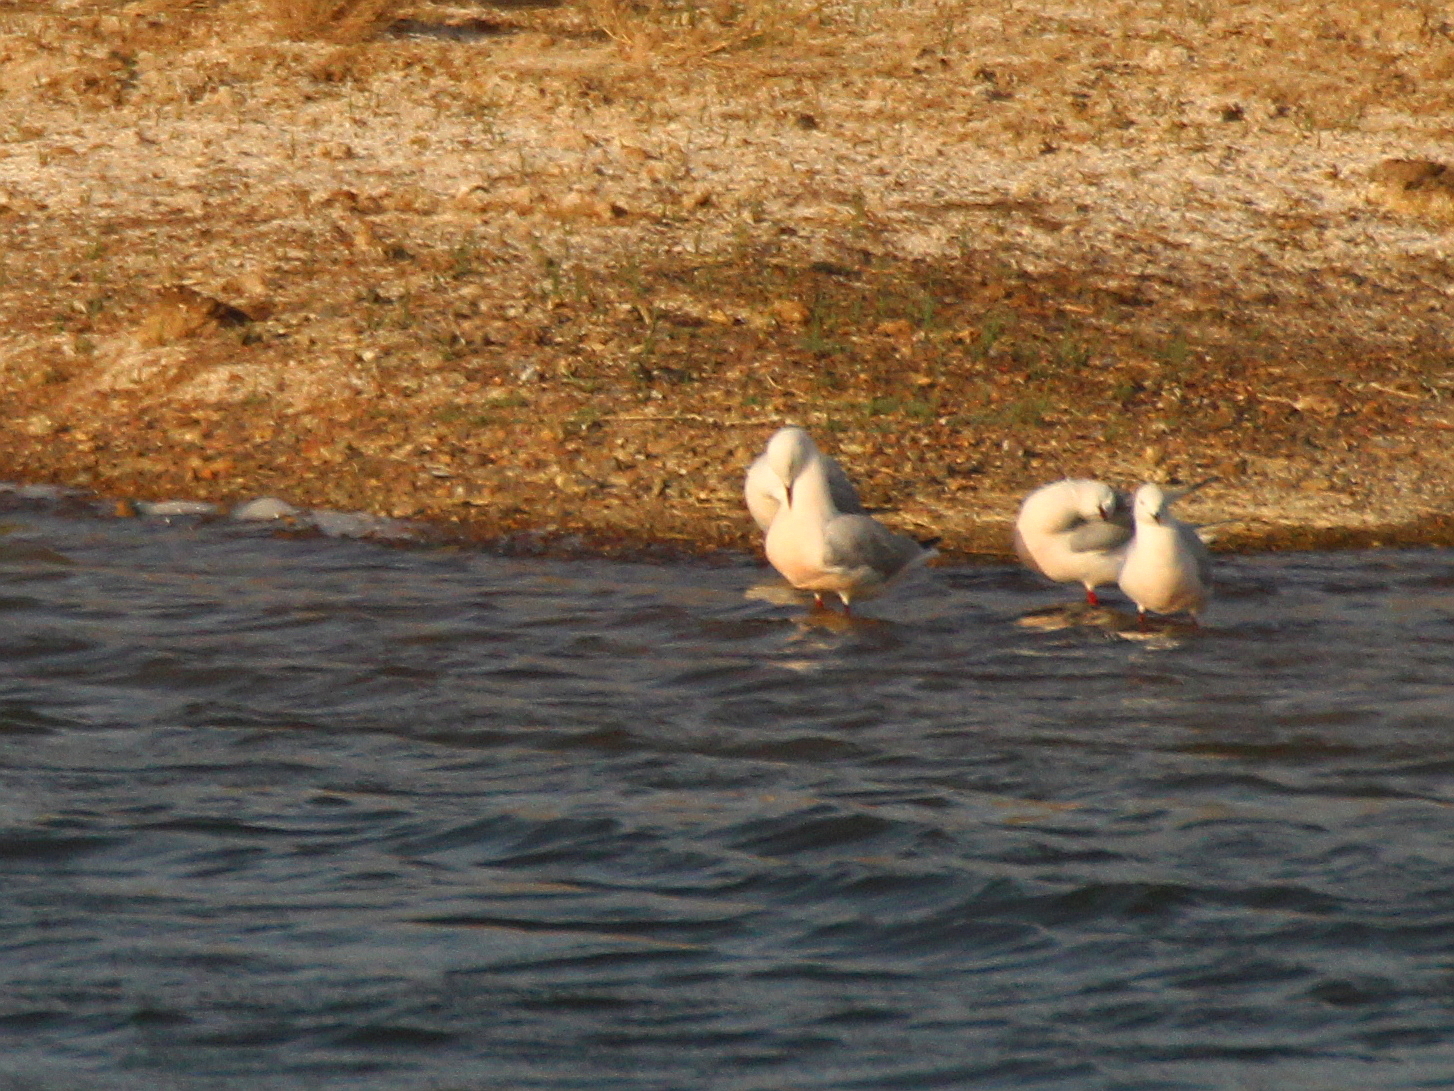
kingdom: Animalia
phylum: Chordata
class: Aves
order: Charadriiformes
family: Laridae
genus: Chroicocephalus
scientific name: Chroicocephalus genei
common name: Slender-billed gull
